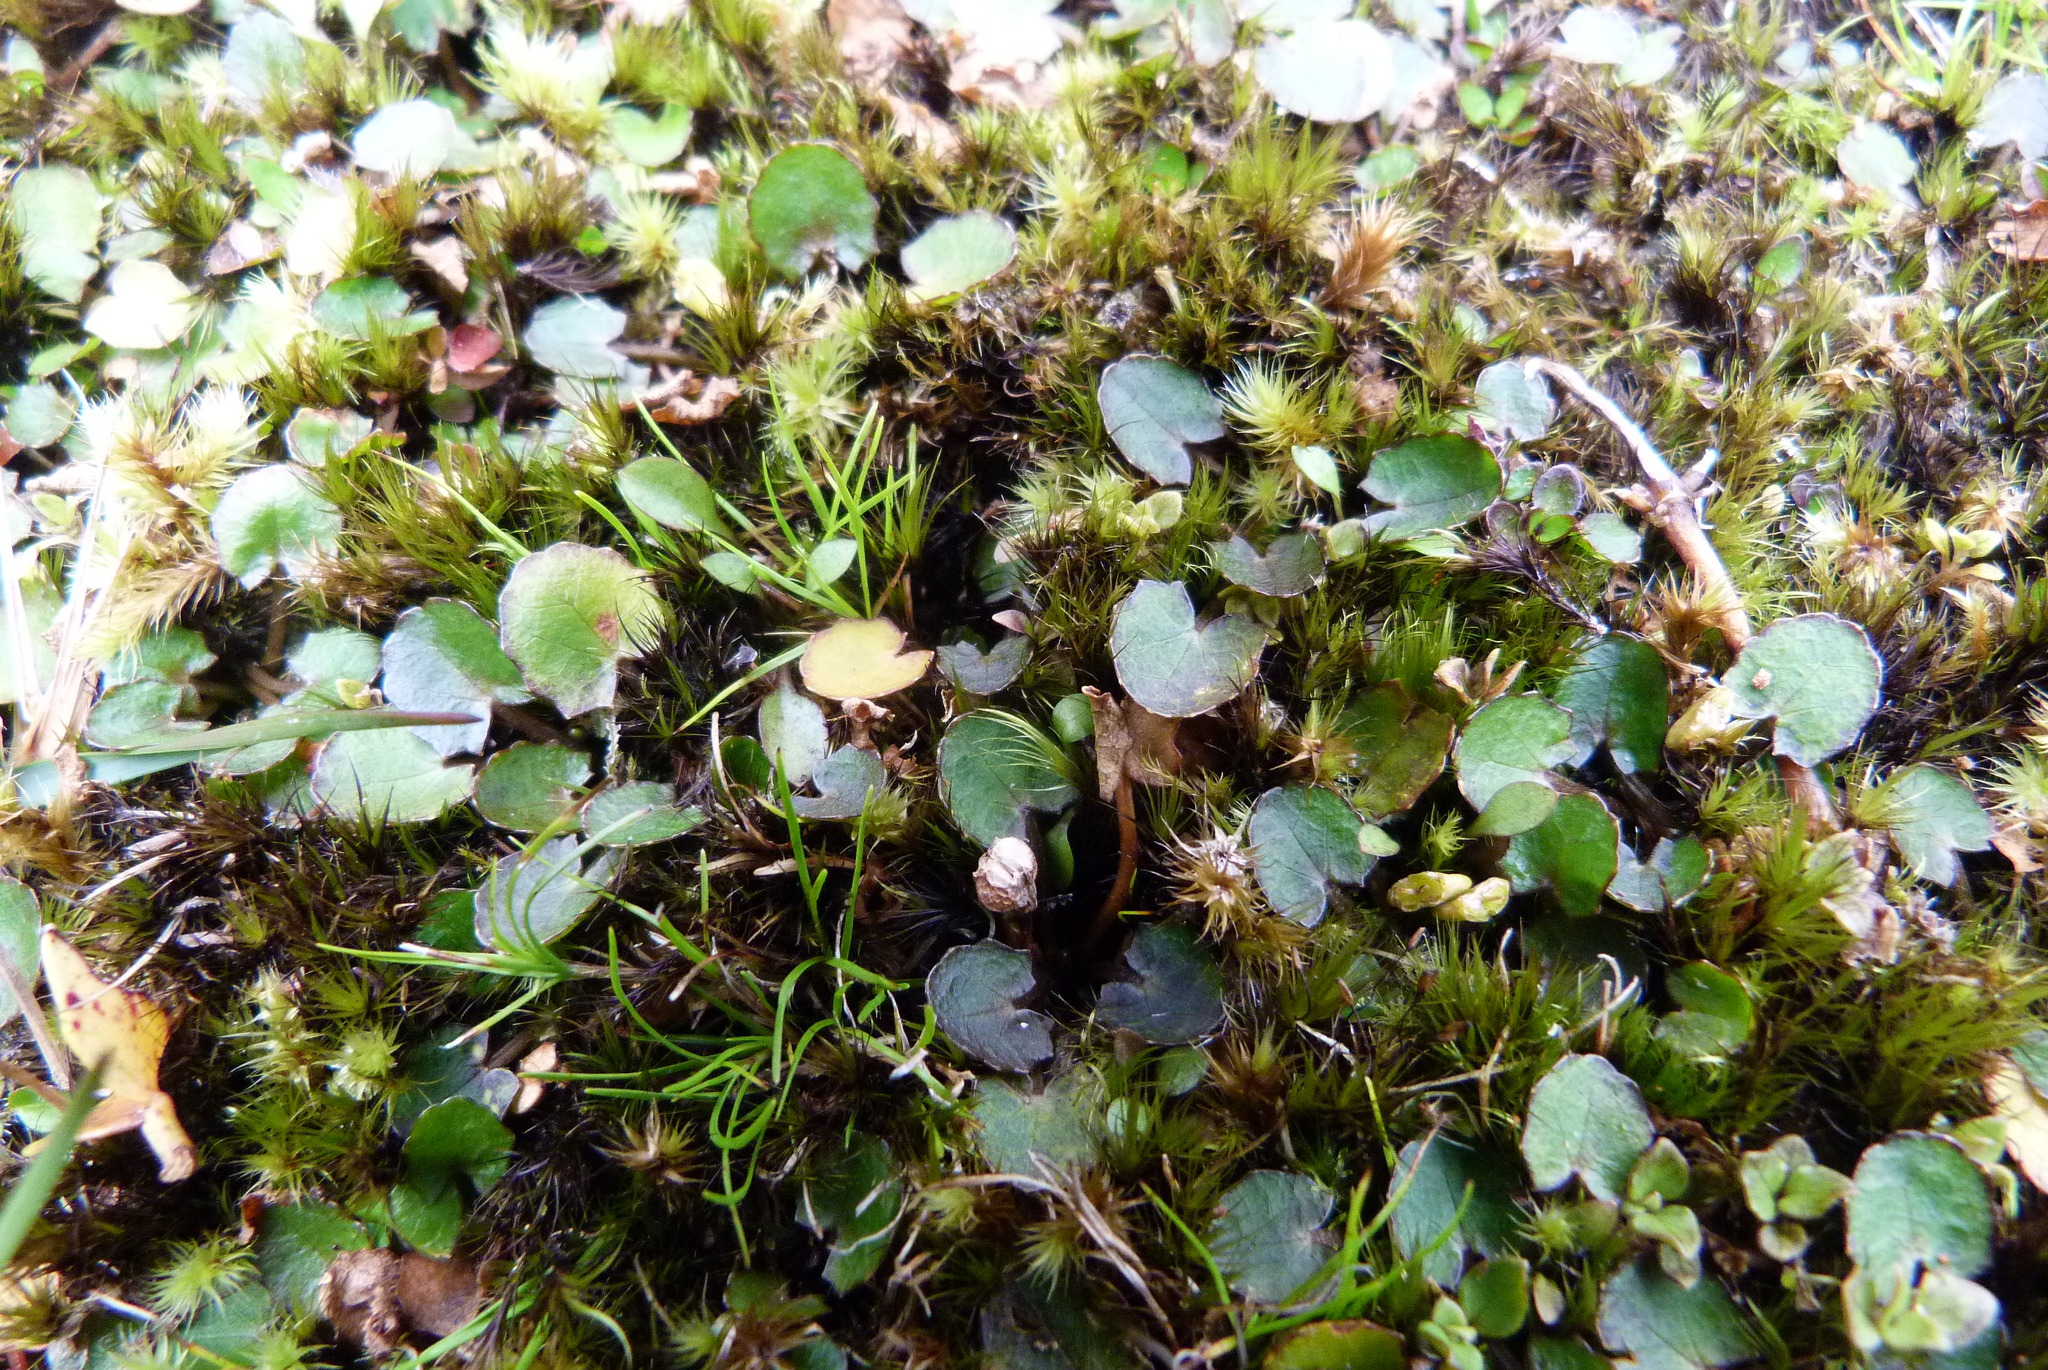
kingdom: Plantae
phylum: Tracheophyta
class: Magnoliopsida
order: Apiales
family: Apiaceae
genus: Centella
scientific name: Centella uniflora
